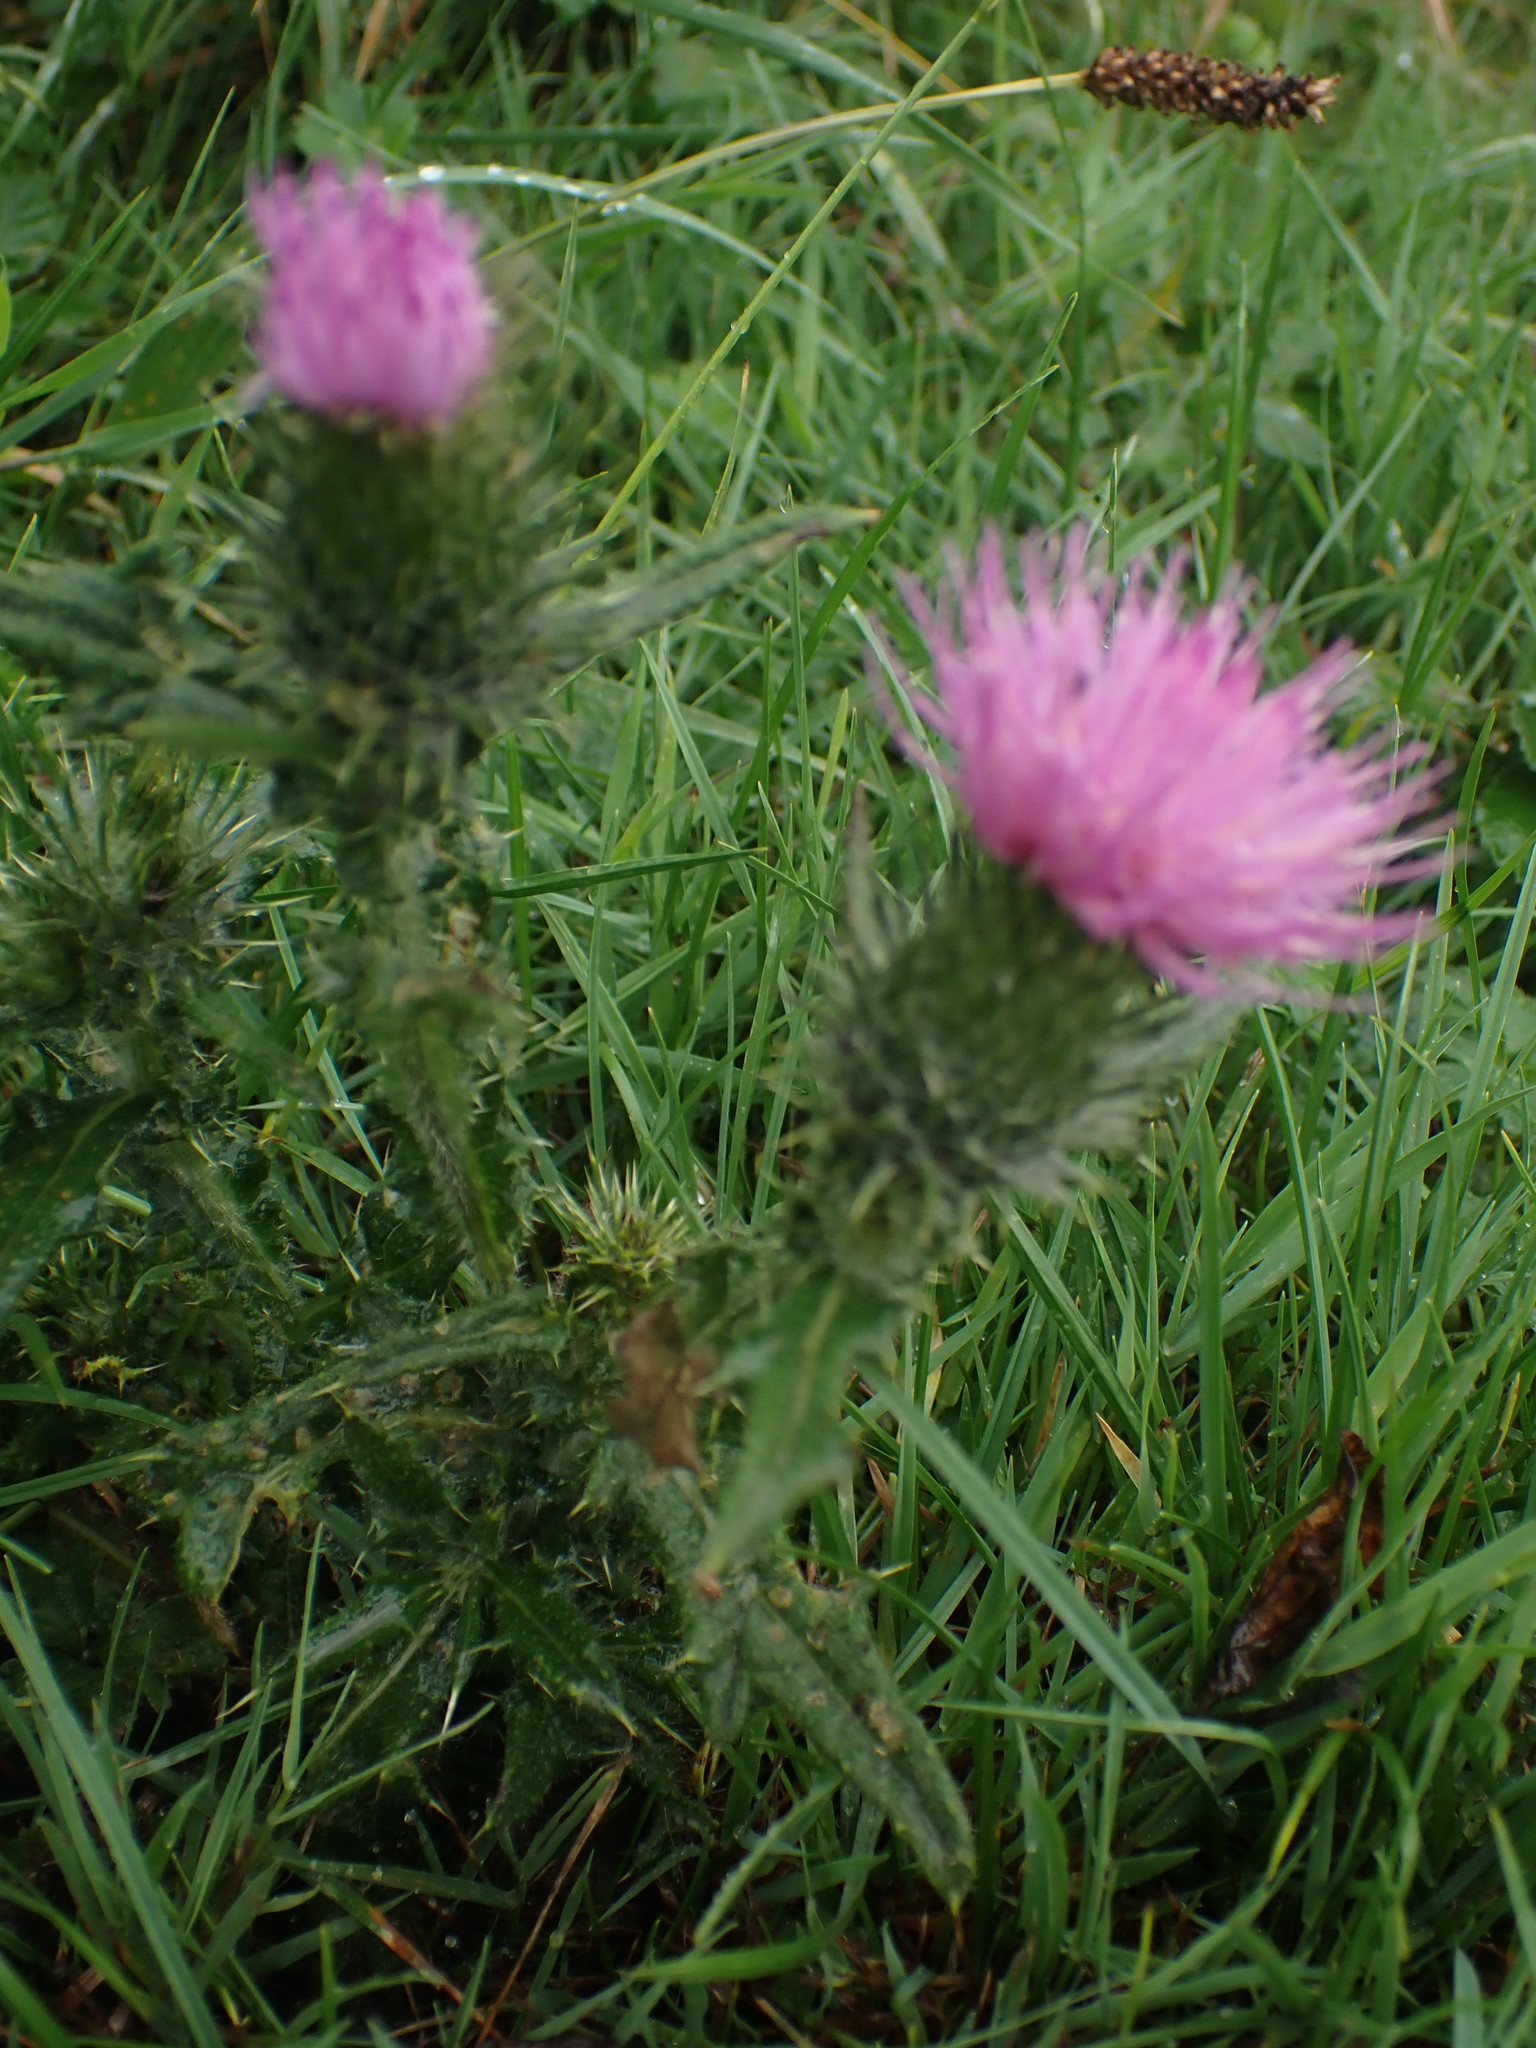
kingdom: Plantae
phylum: Tracheophyta
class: Magnoliopsida
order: Asterales
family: Asteraceae
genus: Cirsium
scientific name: Cirsium vulgare
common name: Bull thistle
